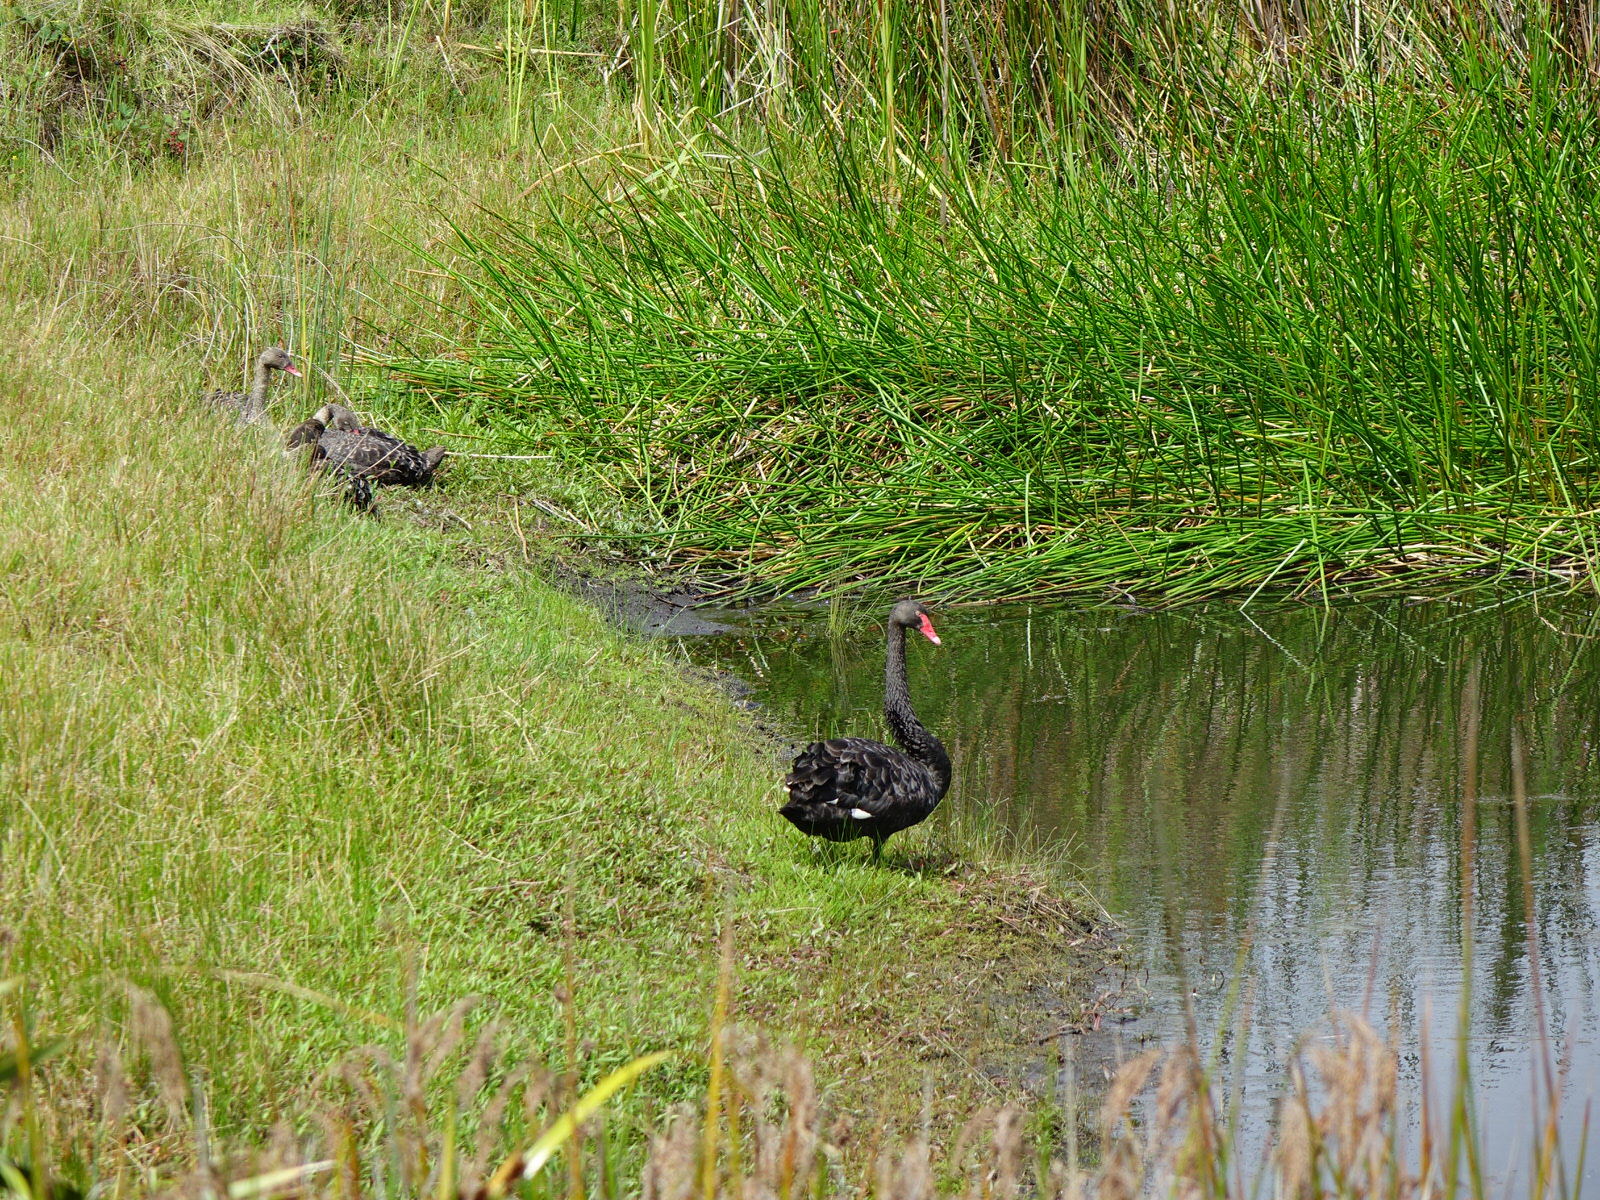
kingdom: Animalia
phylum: Chordata
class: Aves
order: Anseriformes
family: Anatidae
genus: Cygnus
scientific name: Cygnus atratus
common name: Black swan
